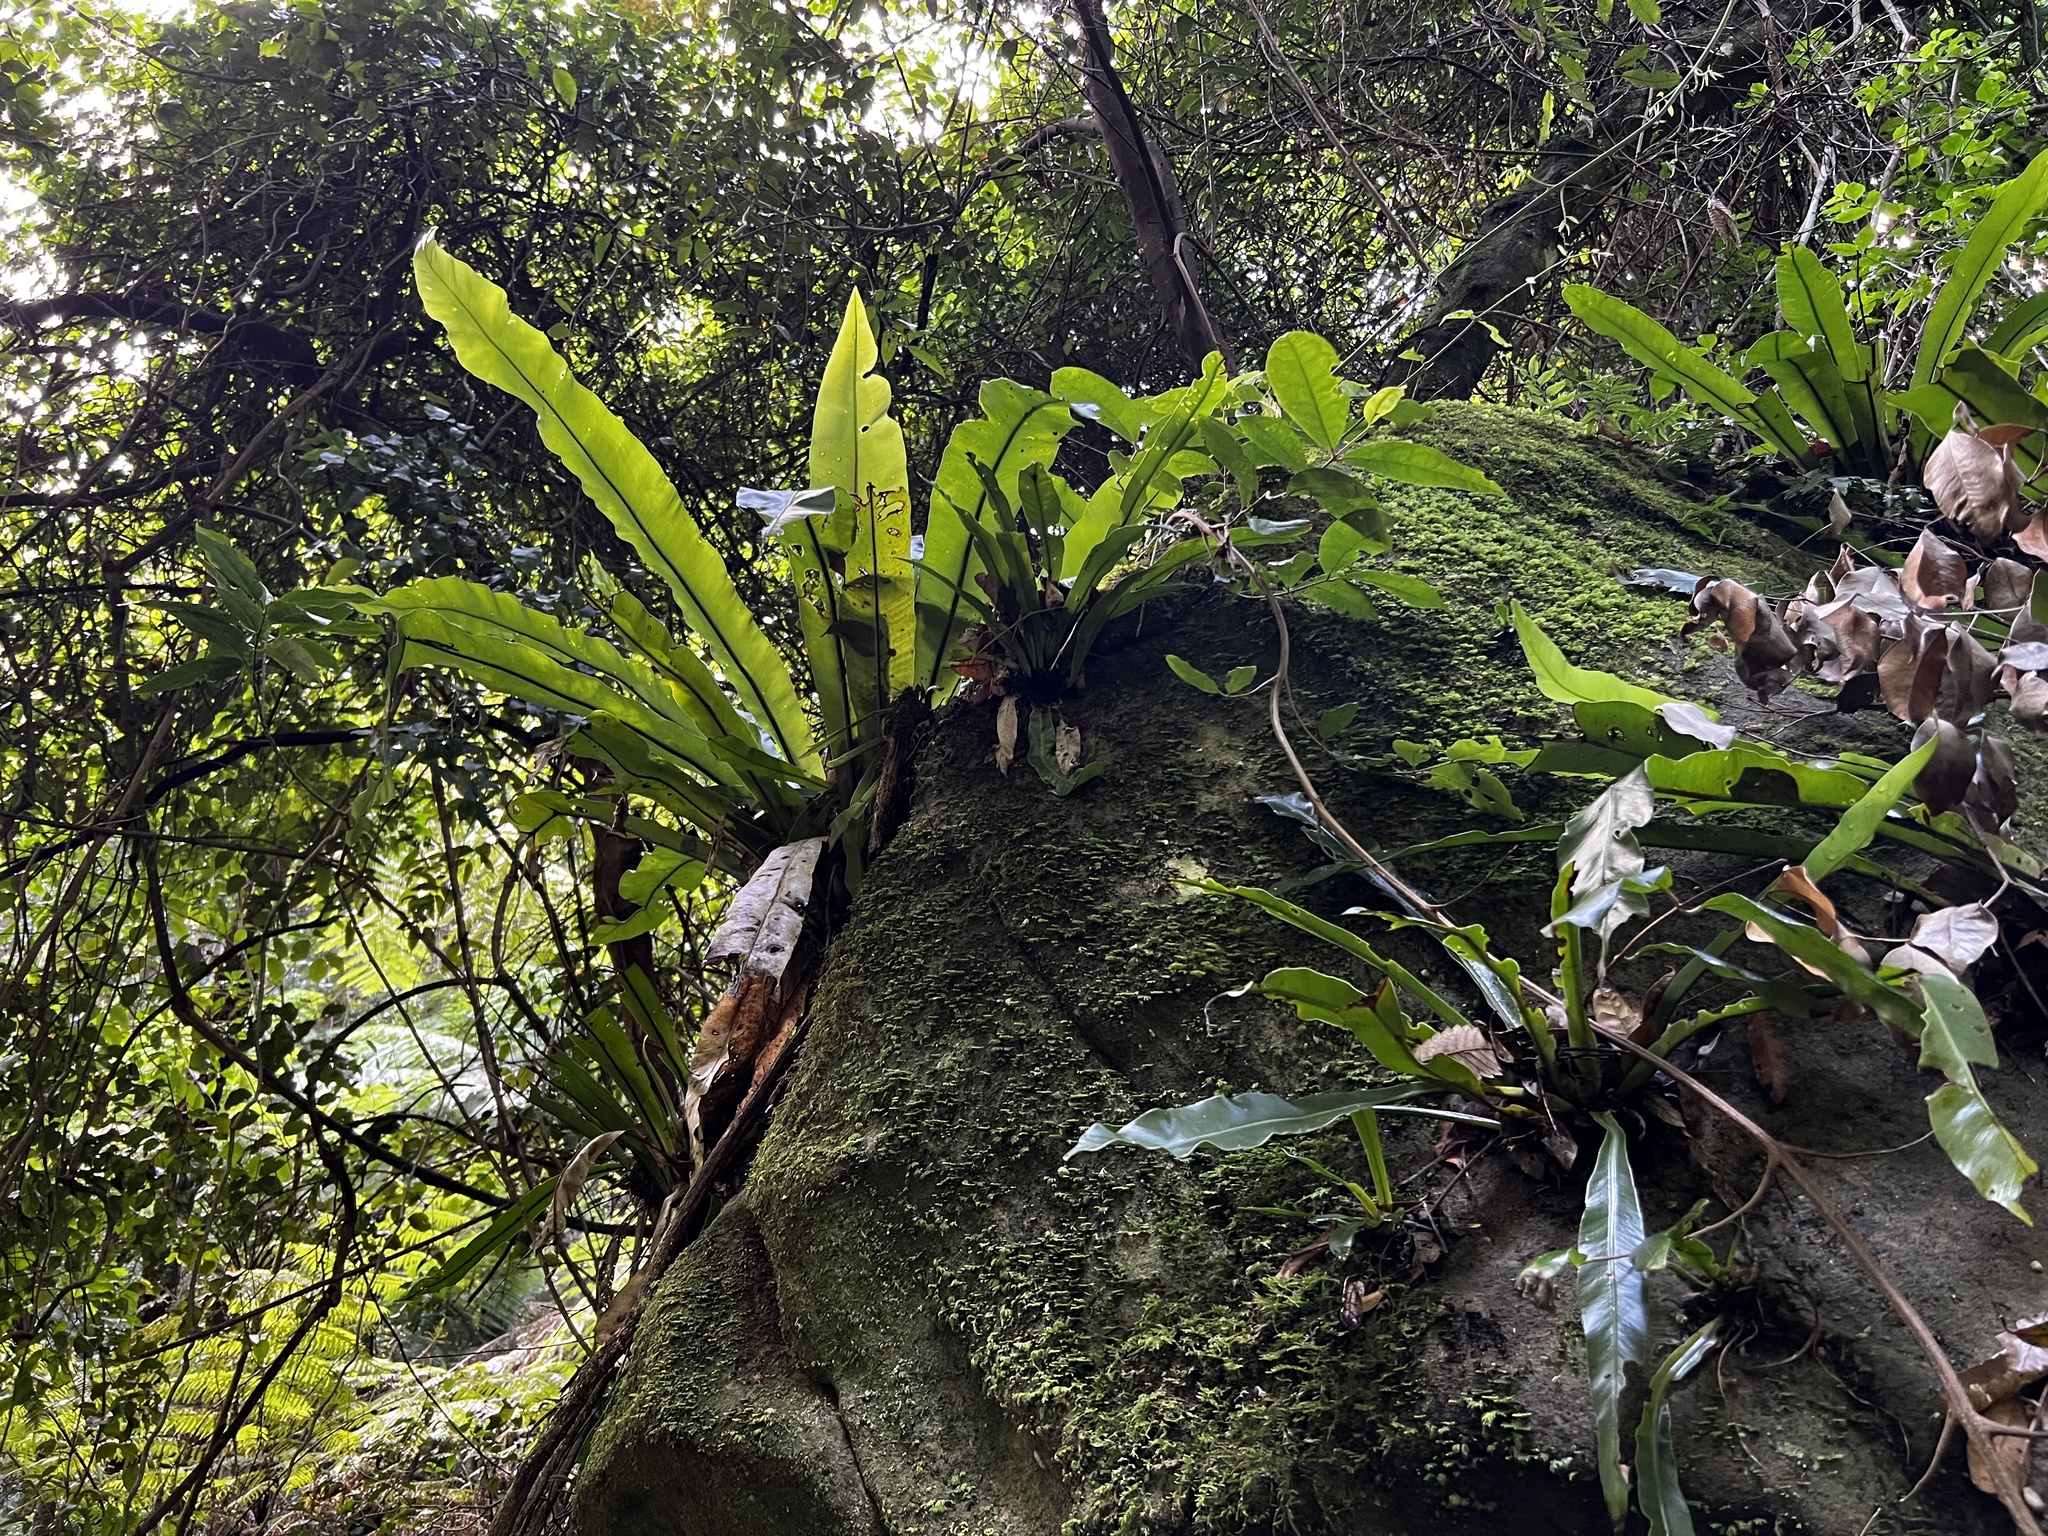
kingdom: Plantae
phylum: Tracheophyta
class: Polypodiopsida
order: Polypodiales
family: Aspleniaceae
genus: Asplenium
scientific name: Asplenium australasicum
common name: Bird's-nest fern
